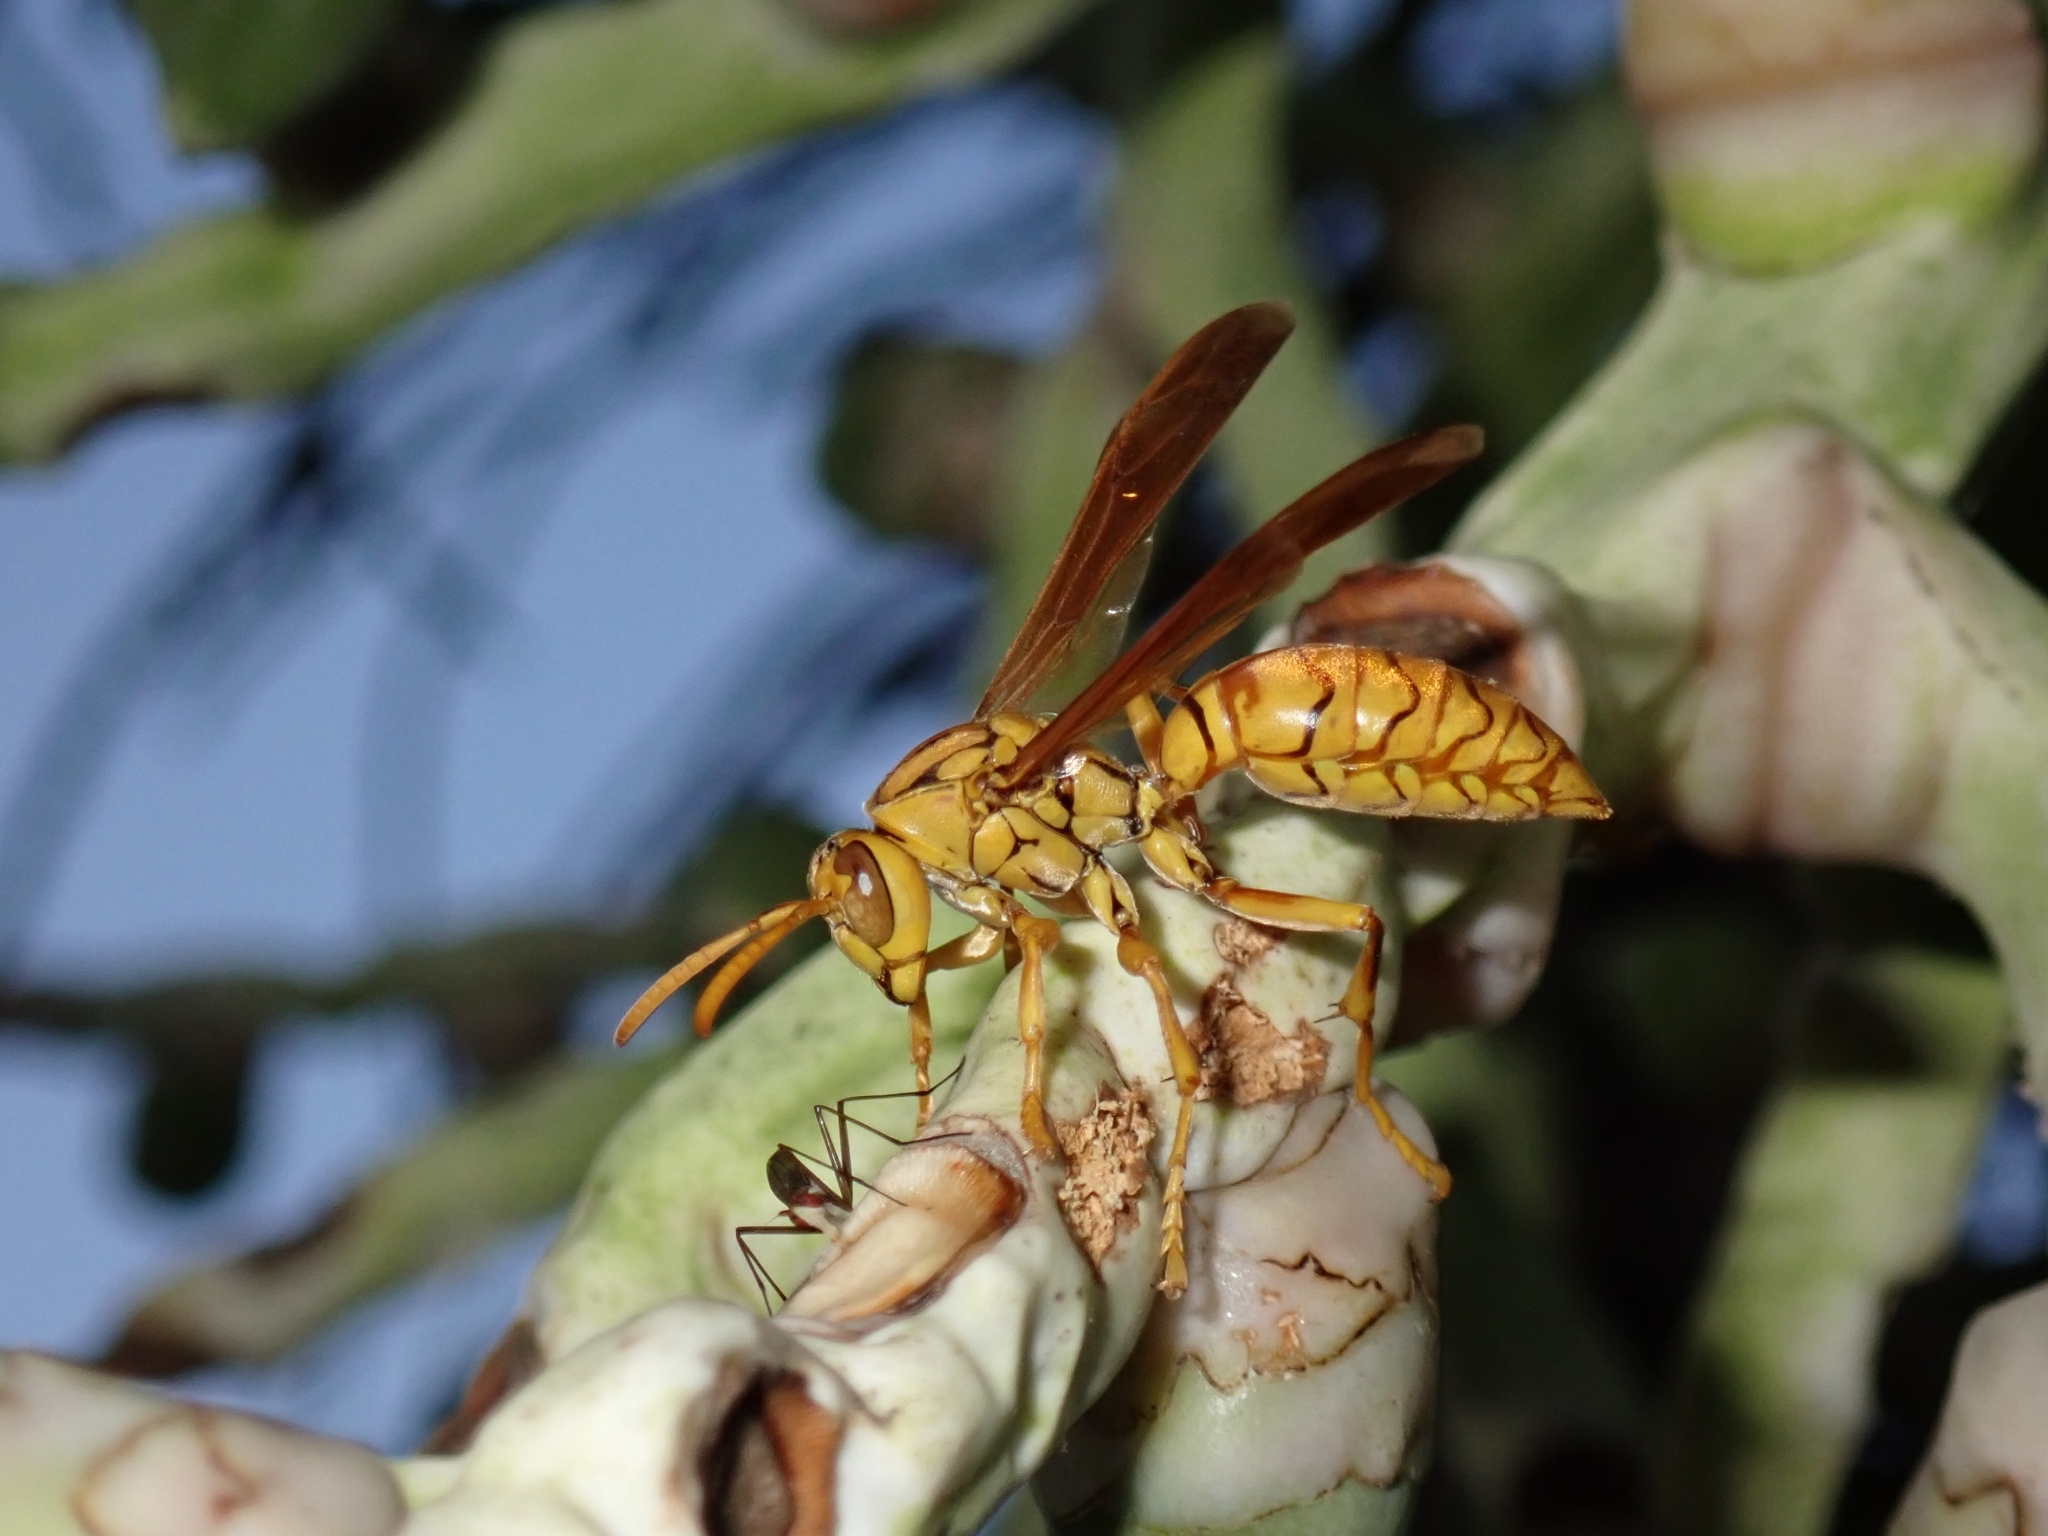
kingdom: Animalia
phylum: Arthropoda
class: Insecta
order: Hymenoptera
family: Eumenidae
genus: Polistes
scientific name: Polistes olivaceus
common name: Paper wasp
